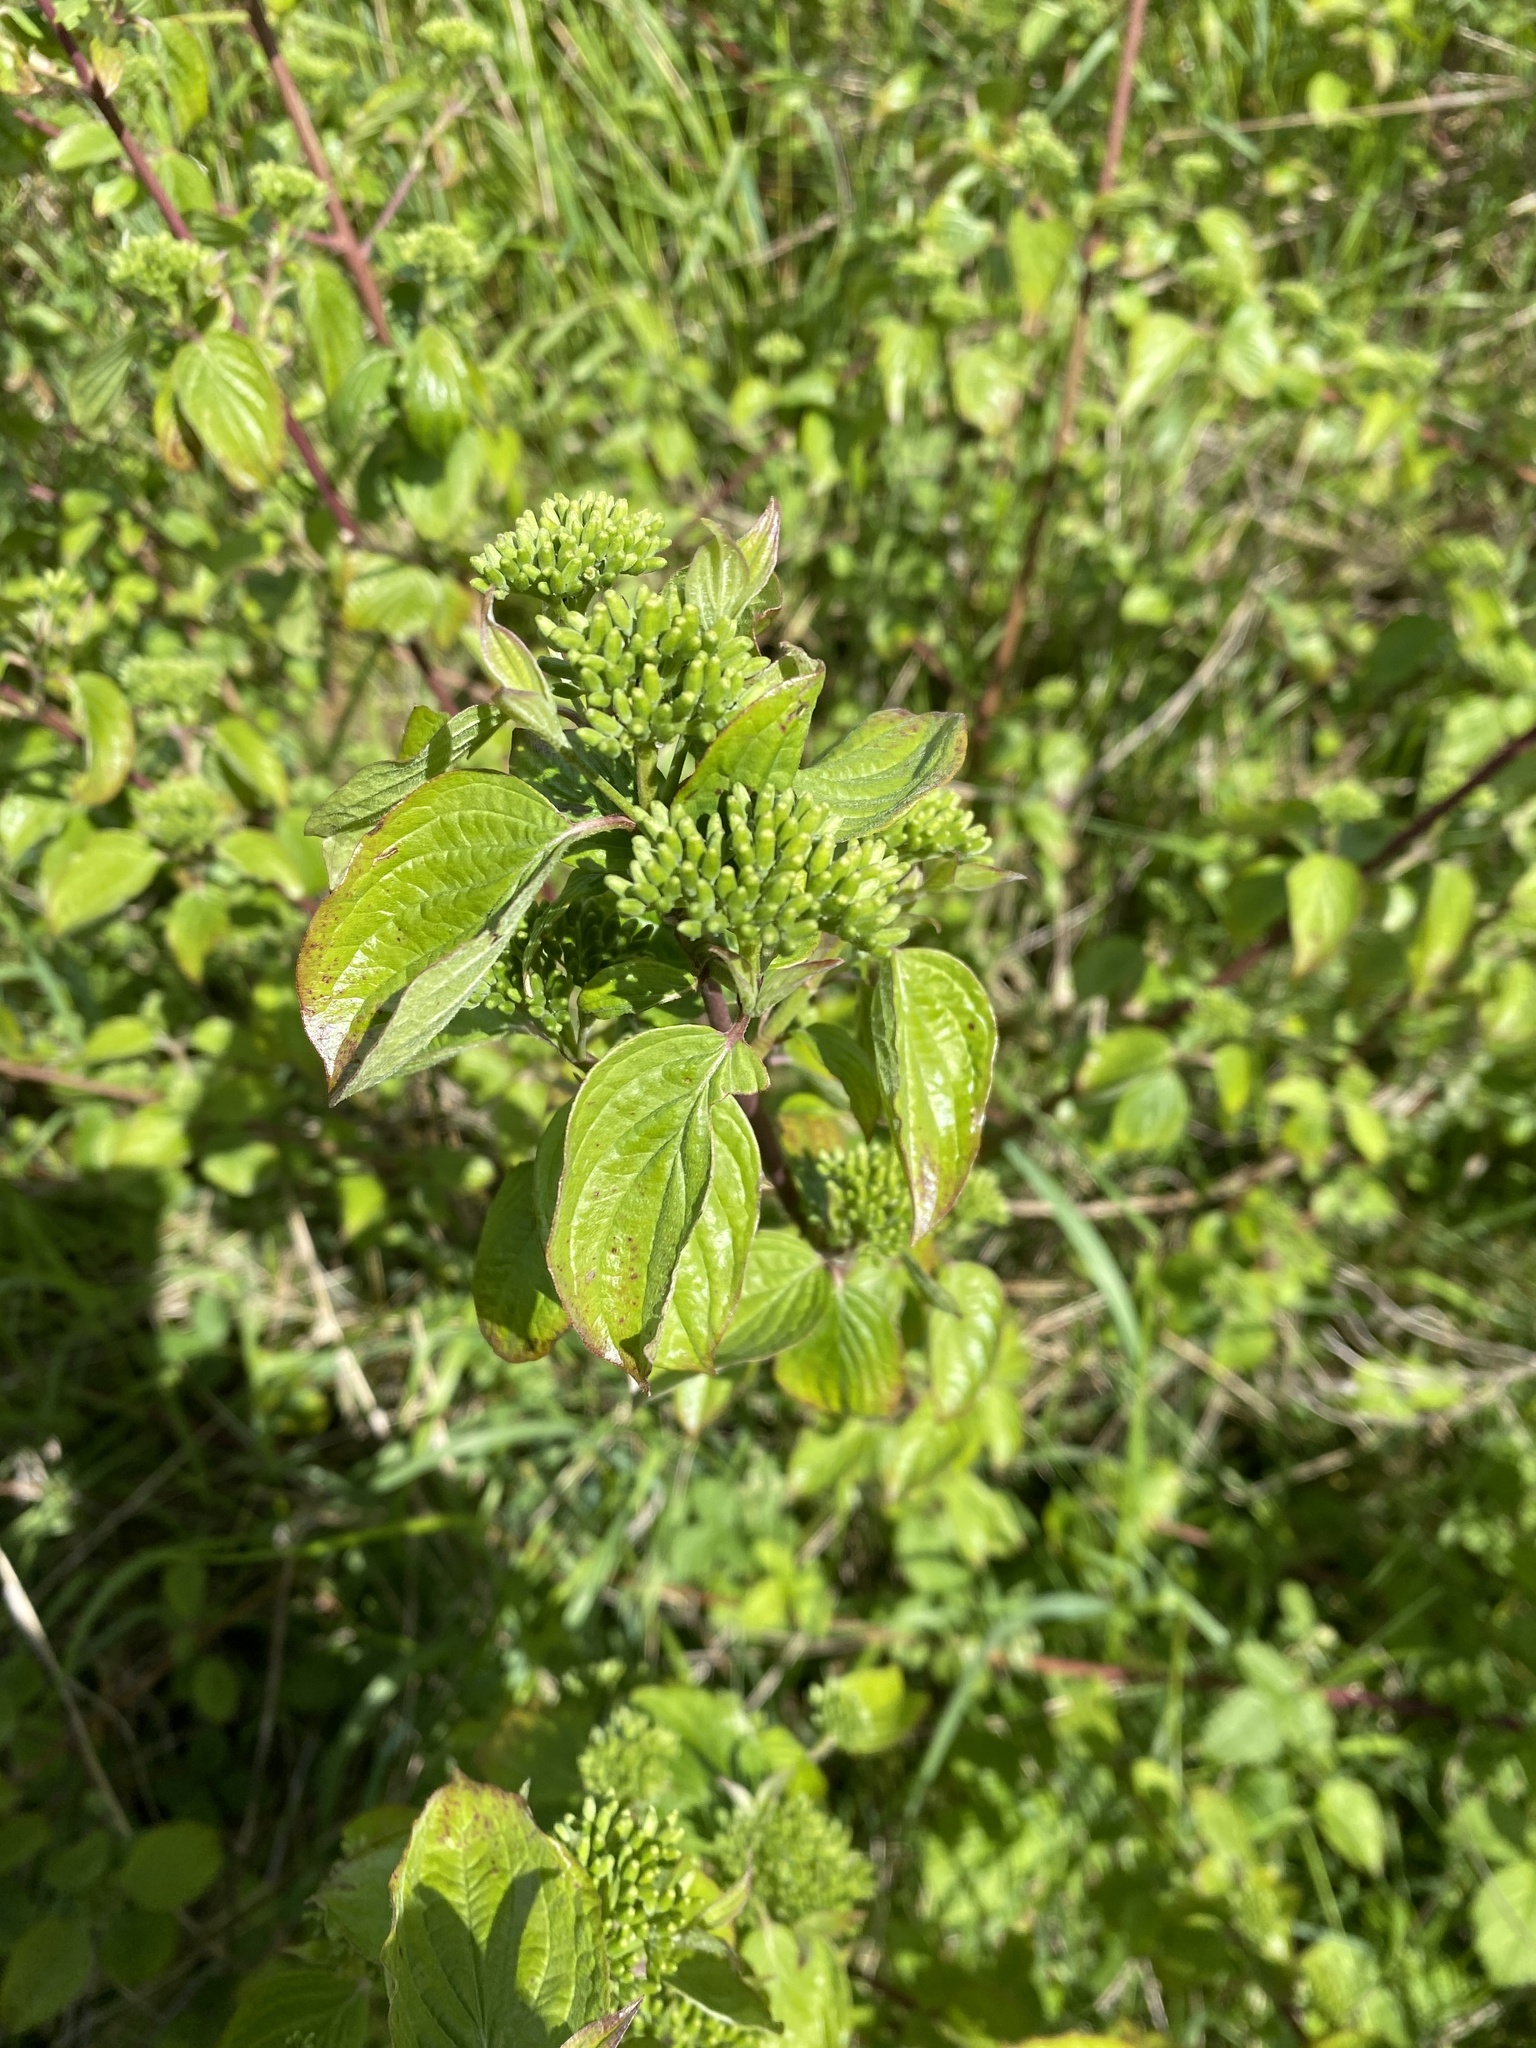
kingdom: Plantae
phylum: Tracheophyta
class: Magnoliopsida
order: Cornales
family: Cornaceae
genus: Cornus
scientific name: Cornus sanguinea
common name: Dogwood
